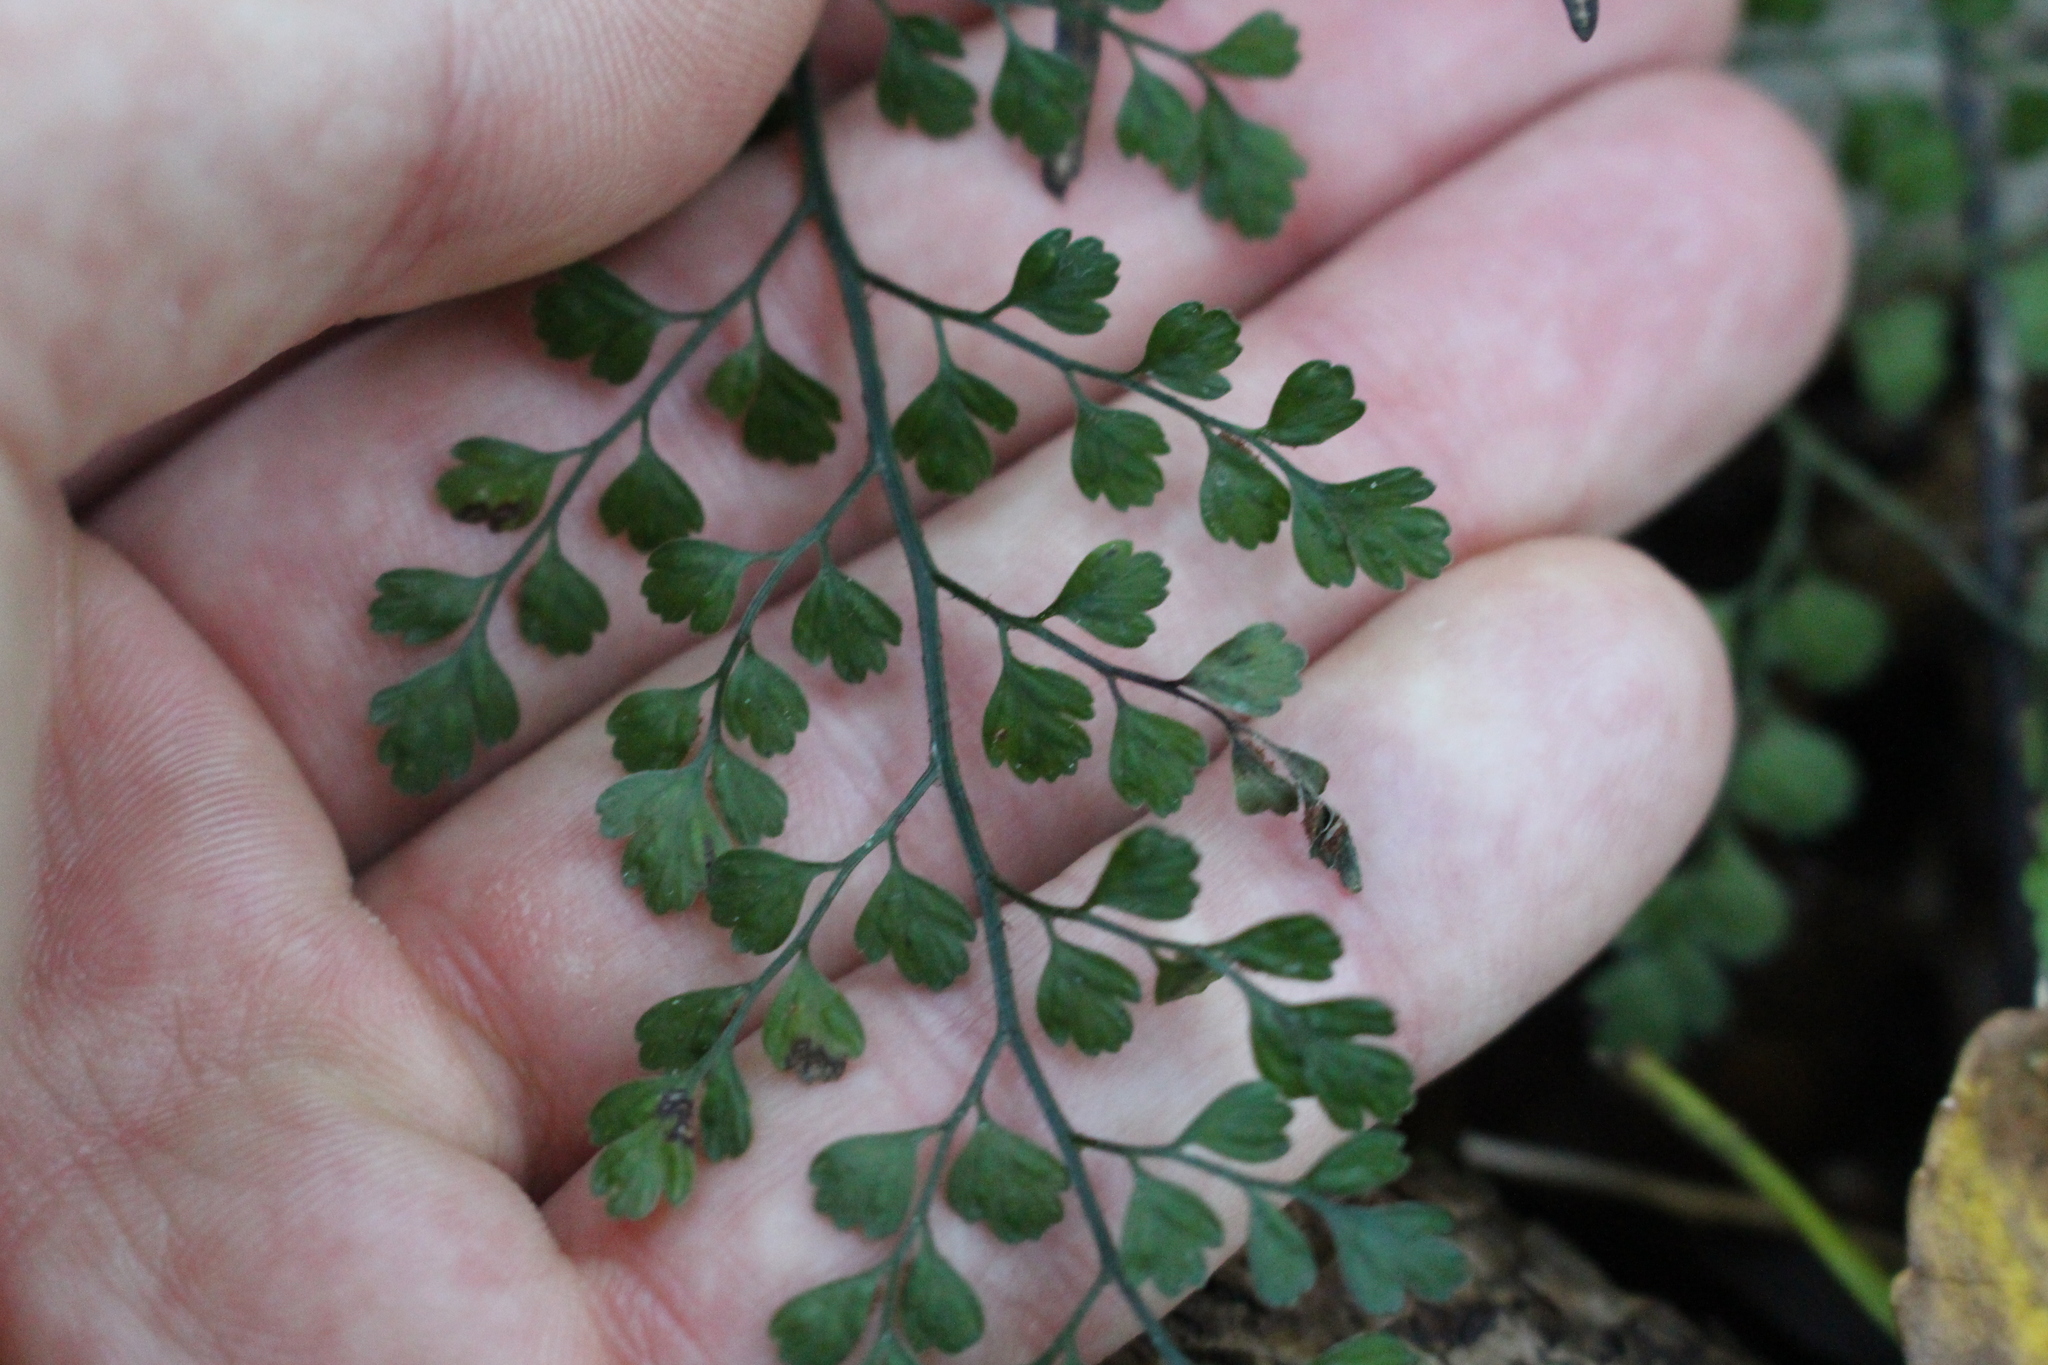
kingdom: Plantae
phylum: Tracheophyta
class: Polypodiopsida
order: Polypodiales
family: Aspleniaceae
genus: Asplenium
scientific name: Asplenium hookerianum
